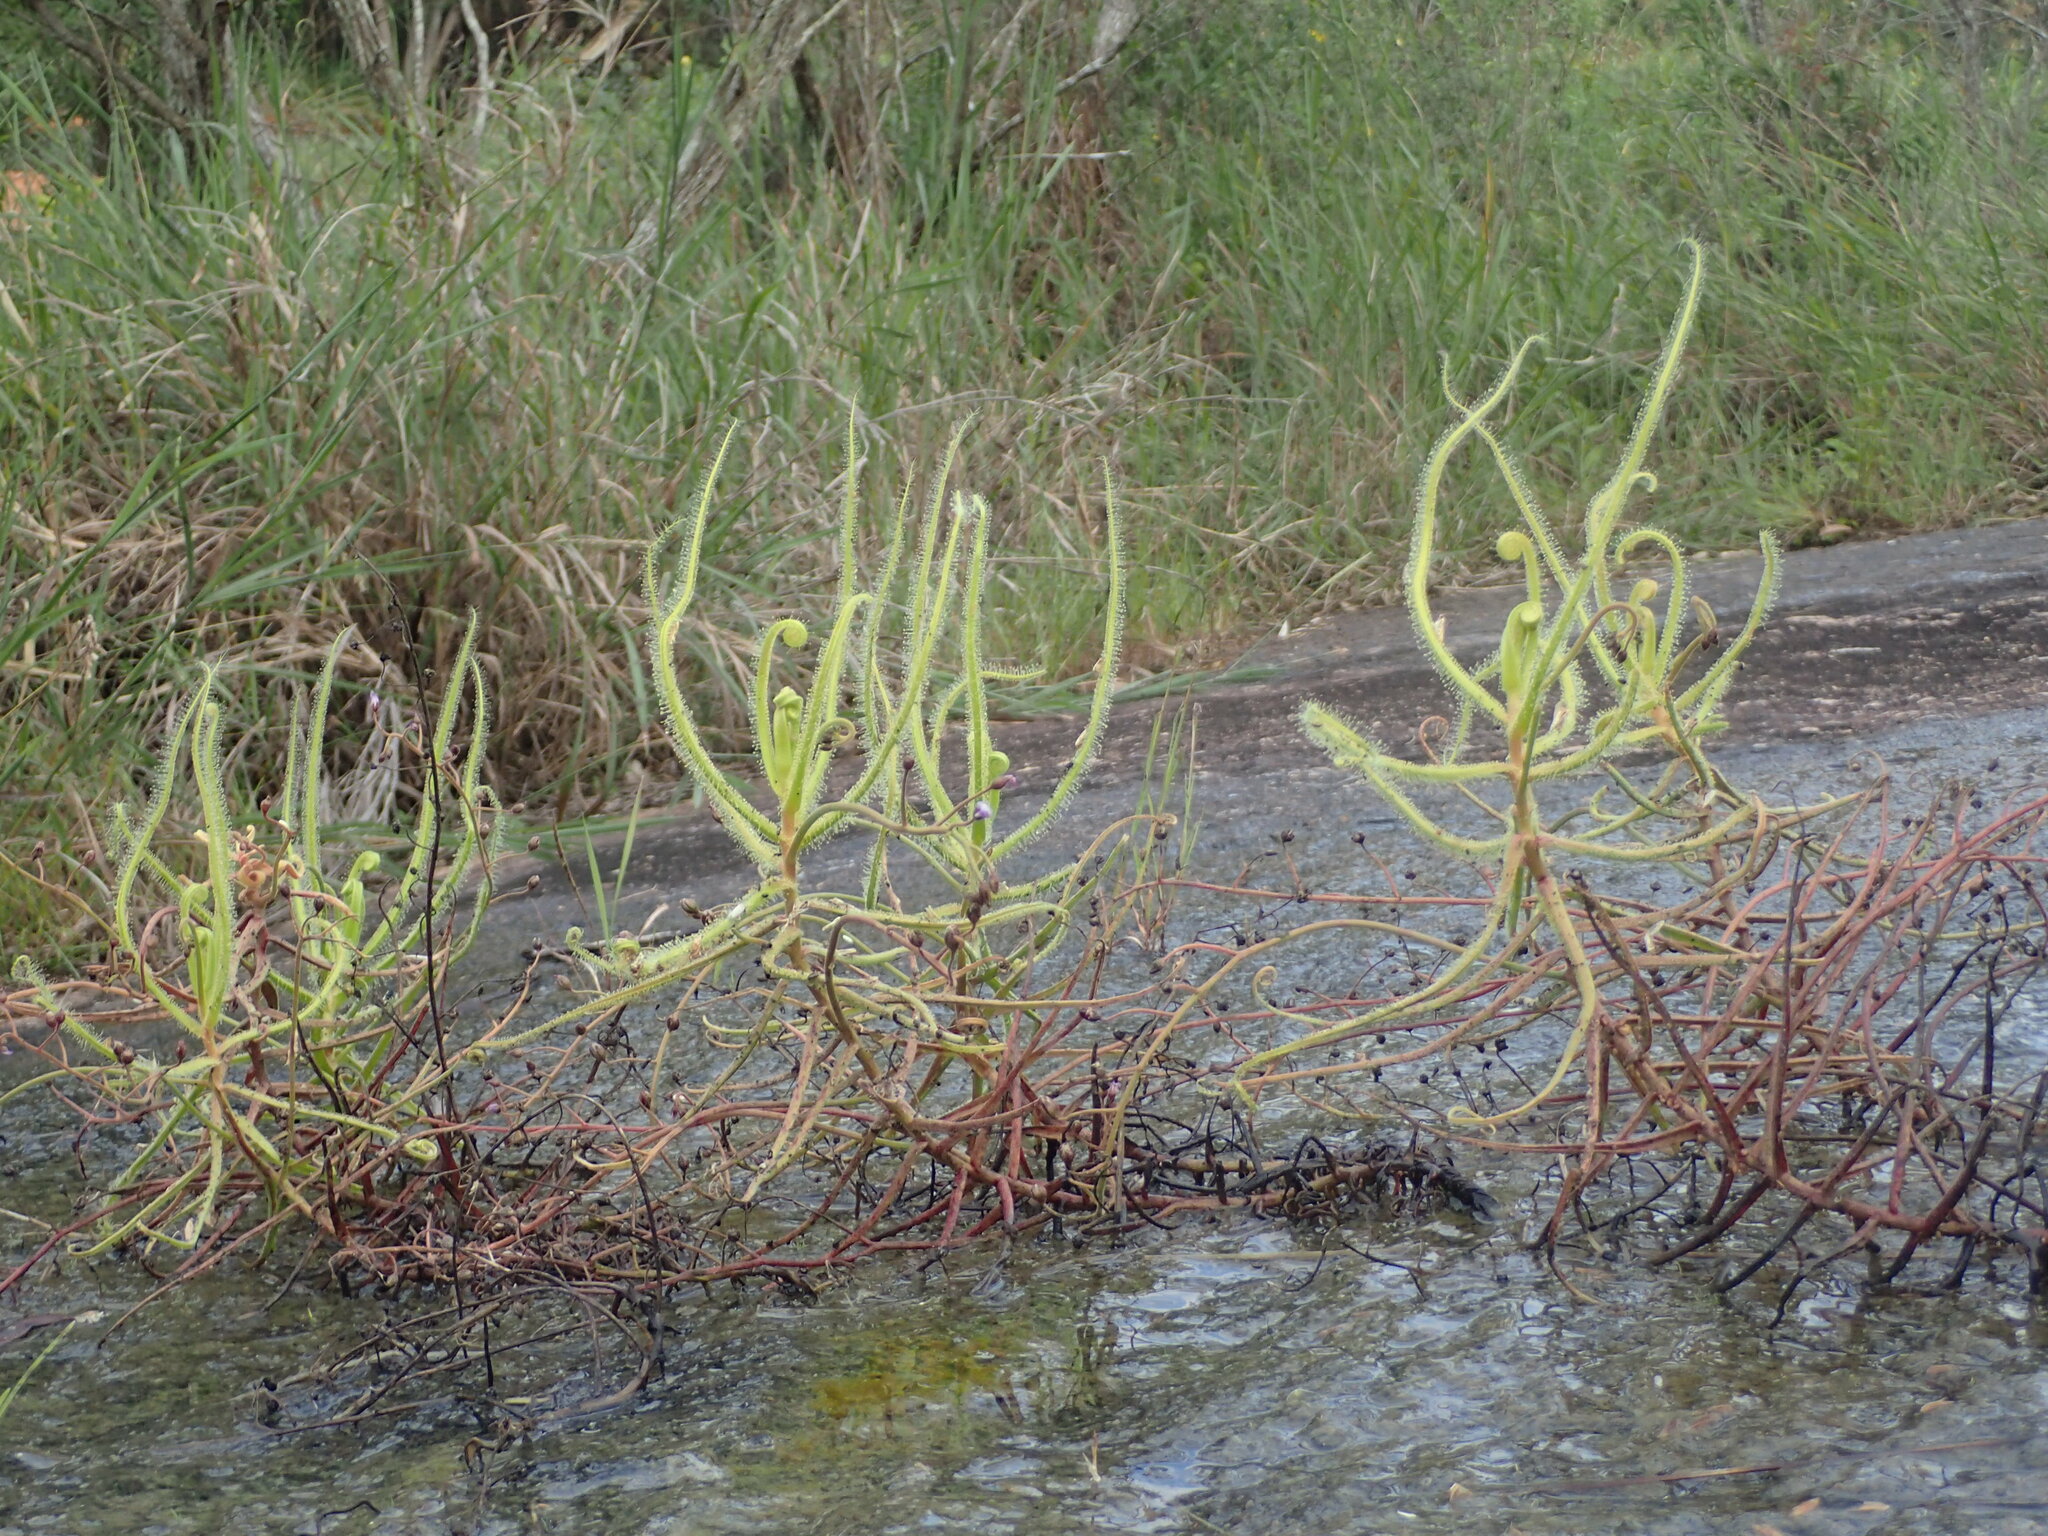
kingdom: Plantae
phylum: Tracheophyta
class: Magnoliopsida
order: Caryophyllales
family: Droseraceae
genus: Drosera
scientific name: Drosera finlaysoniana
